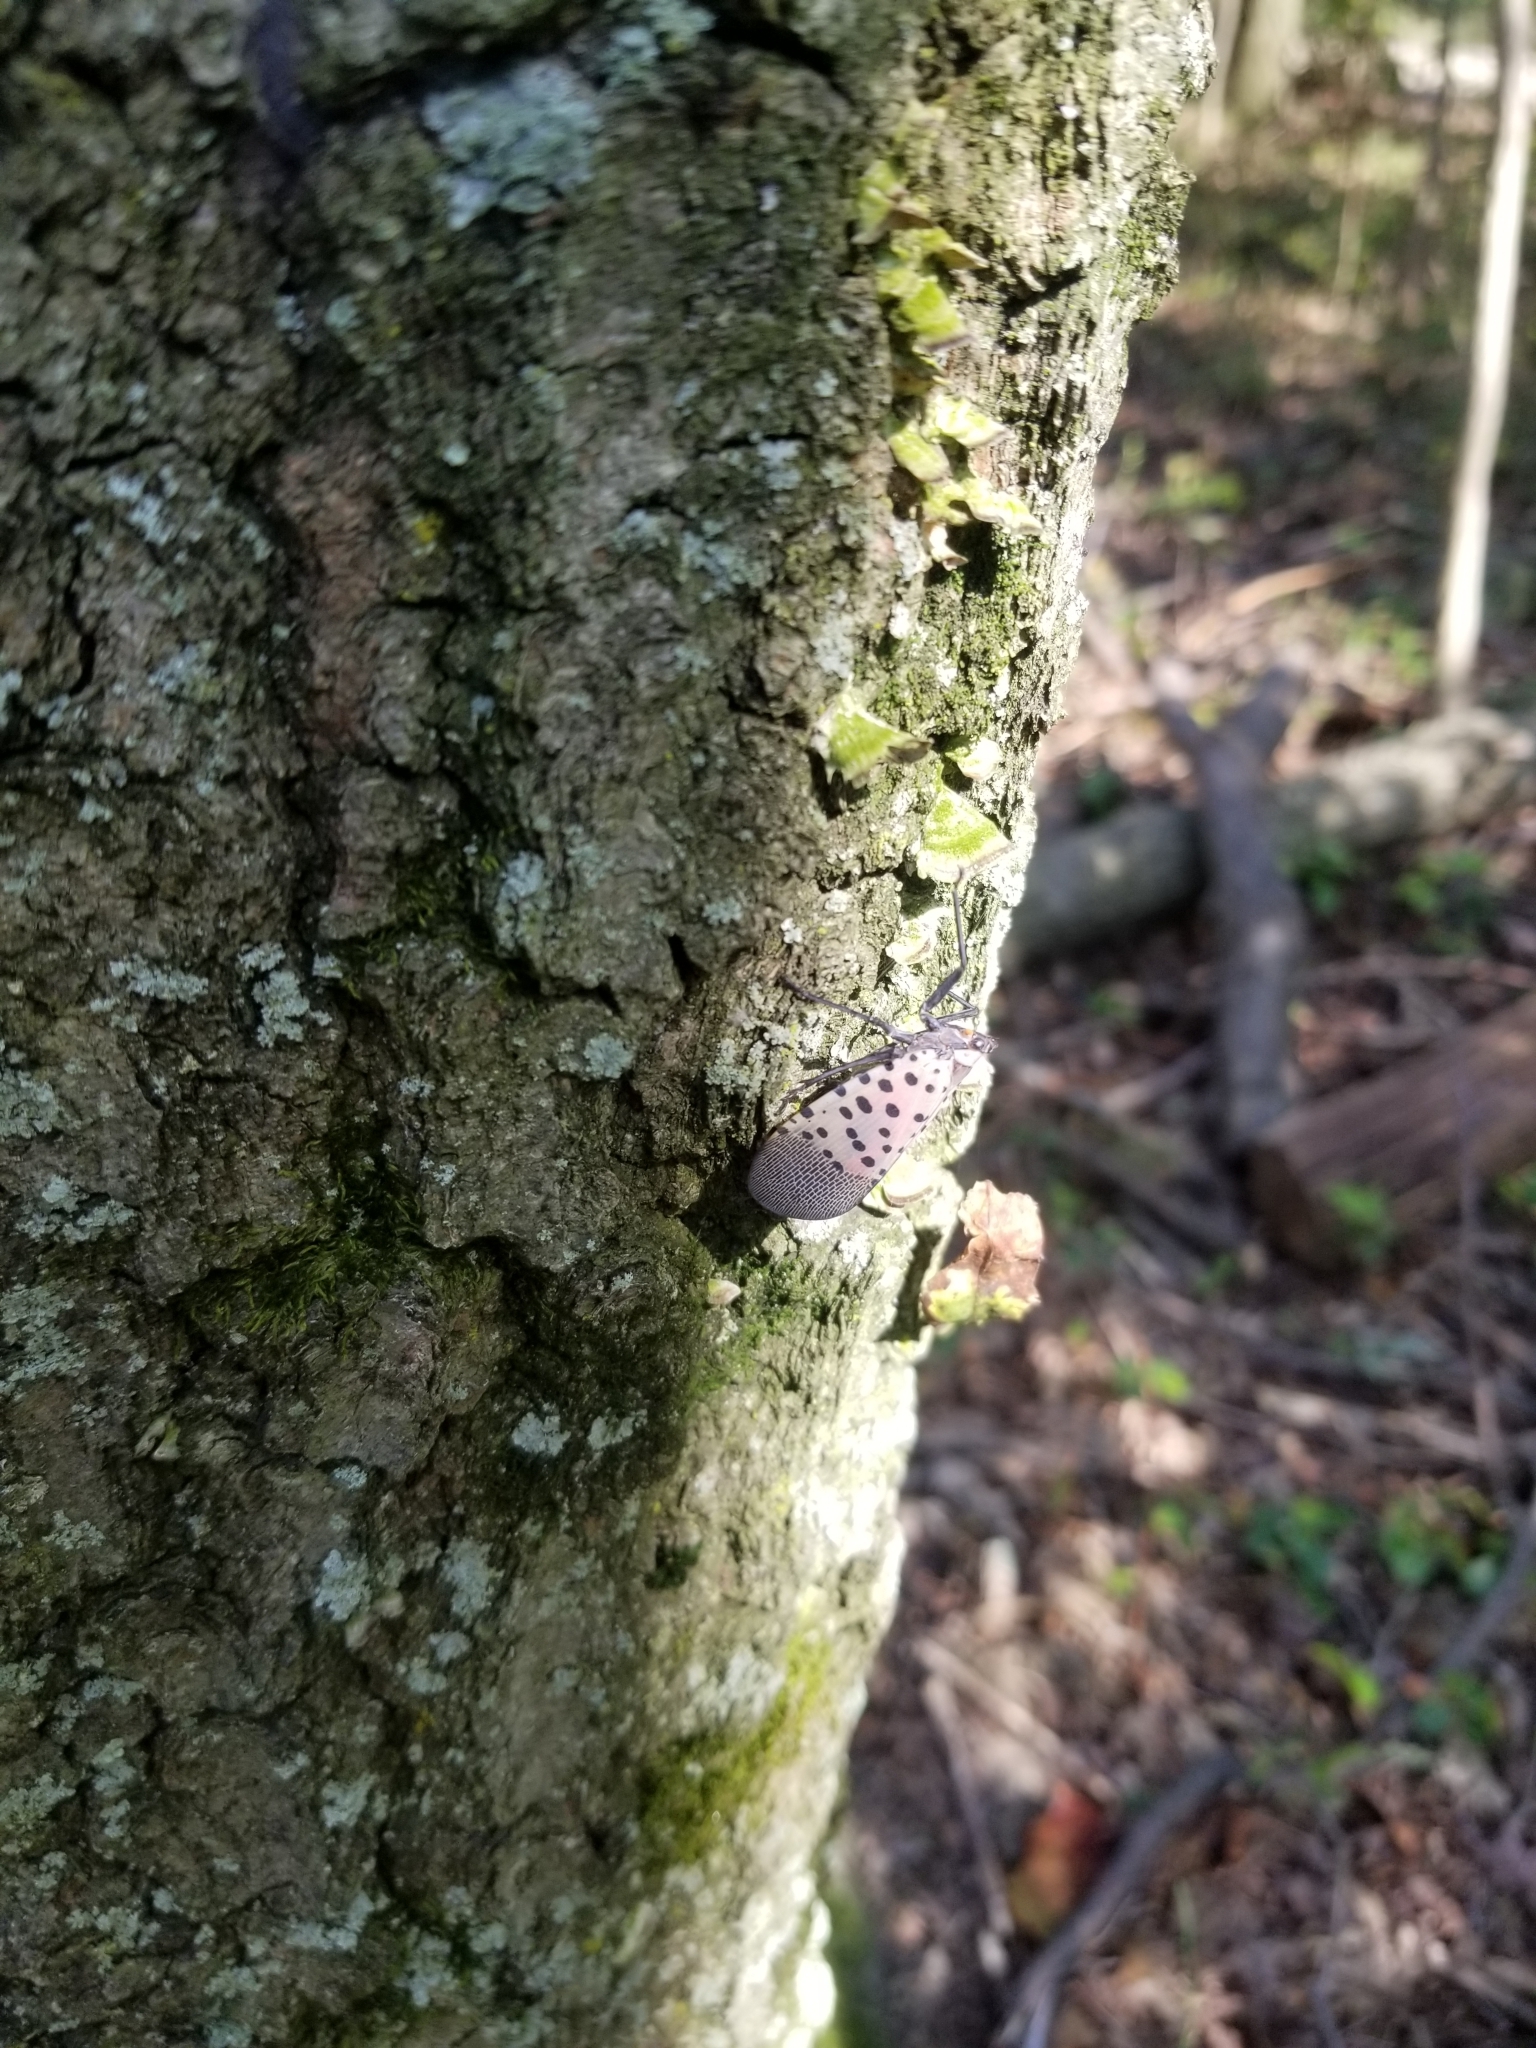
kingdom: Animalia
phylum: Arthropoda
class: Insecta
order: Hemiptera
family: Fulgoridae
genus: Lycorma
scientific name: Lycorma delicatula
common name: Spotted lanternfly
